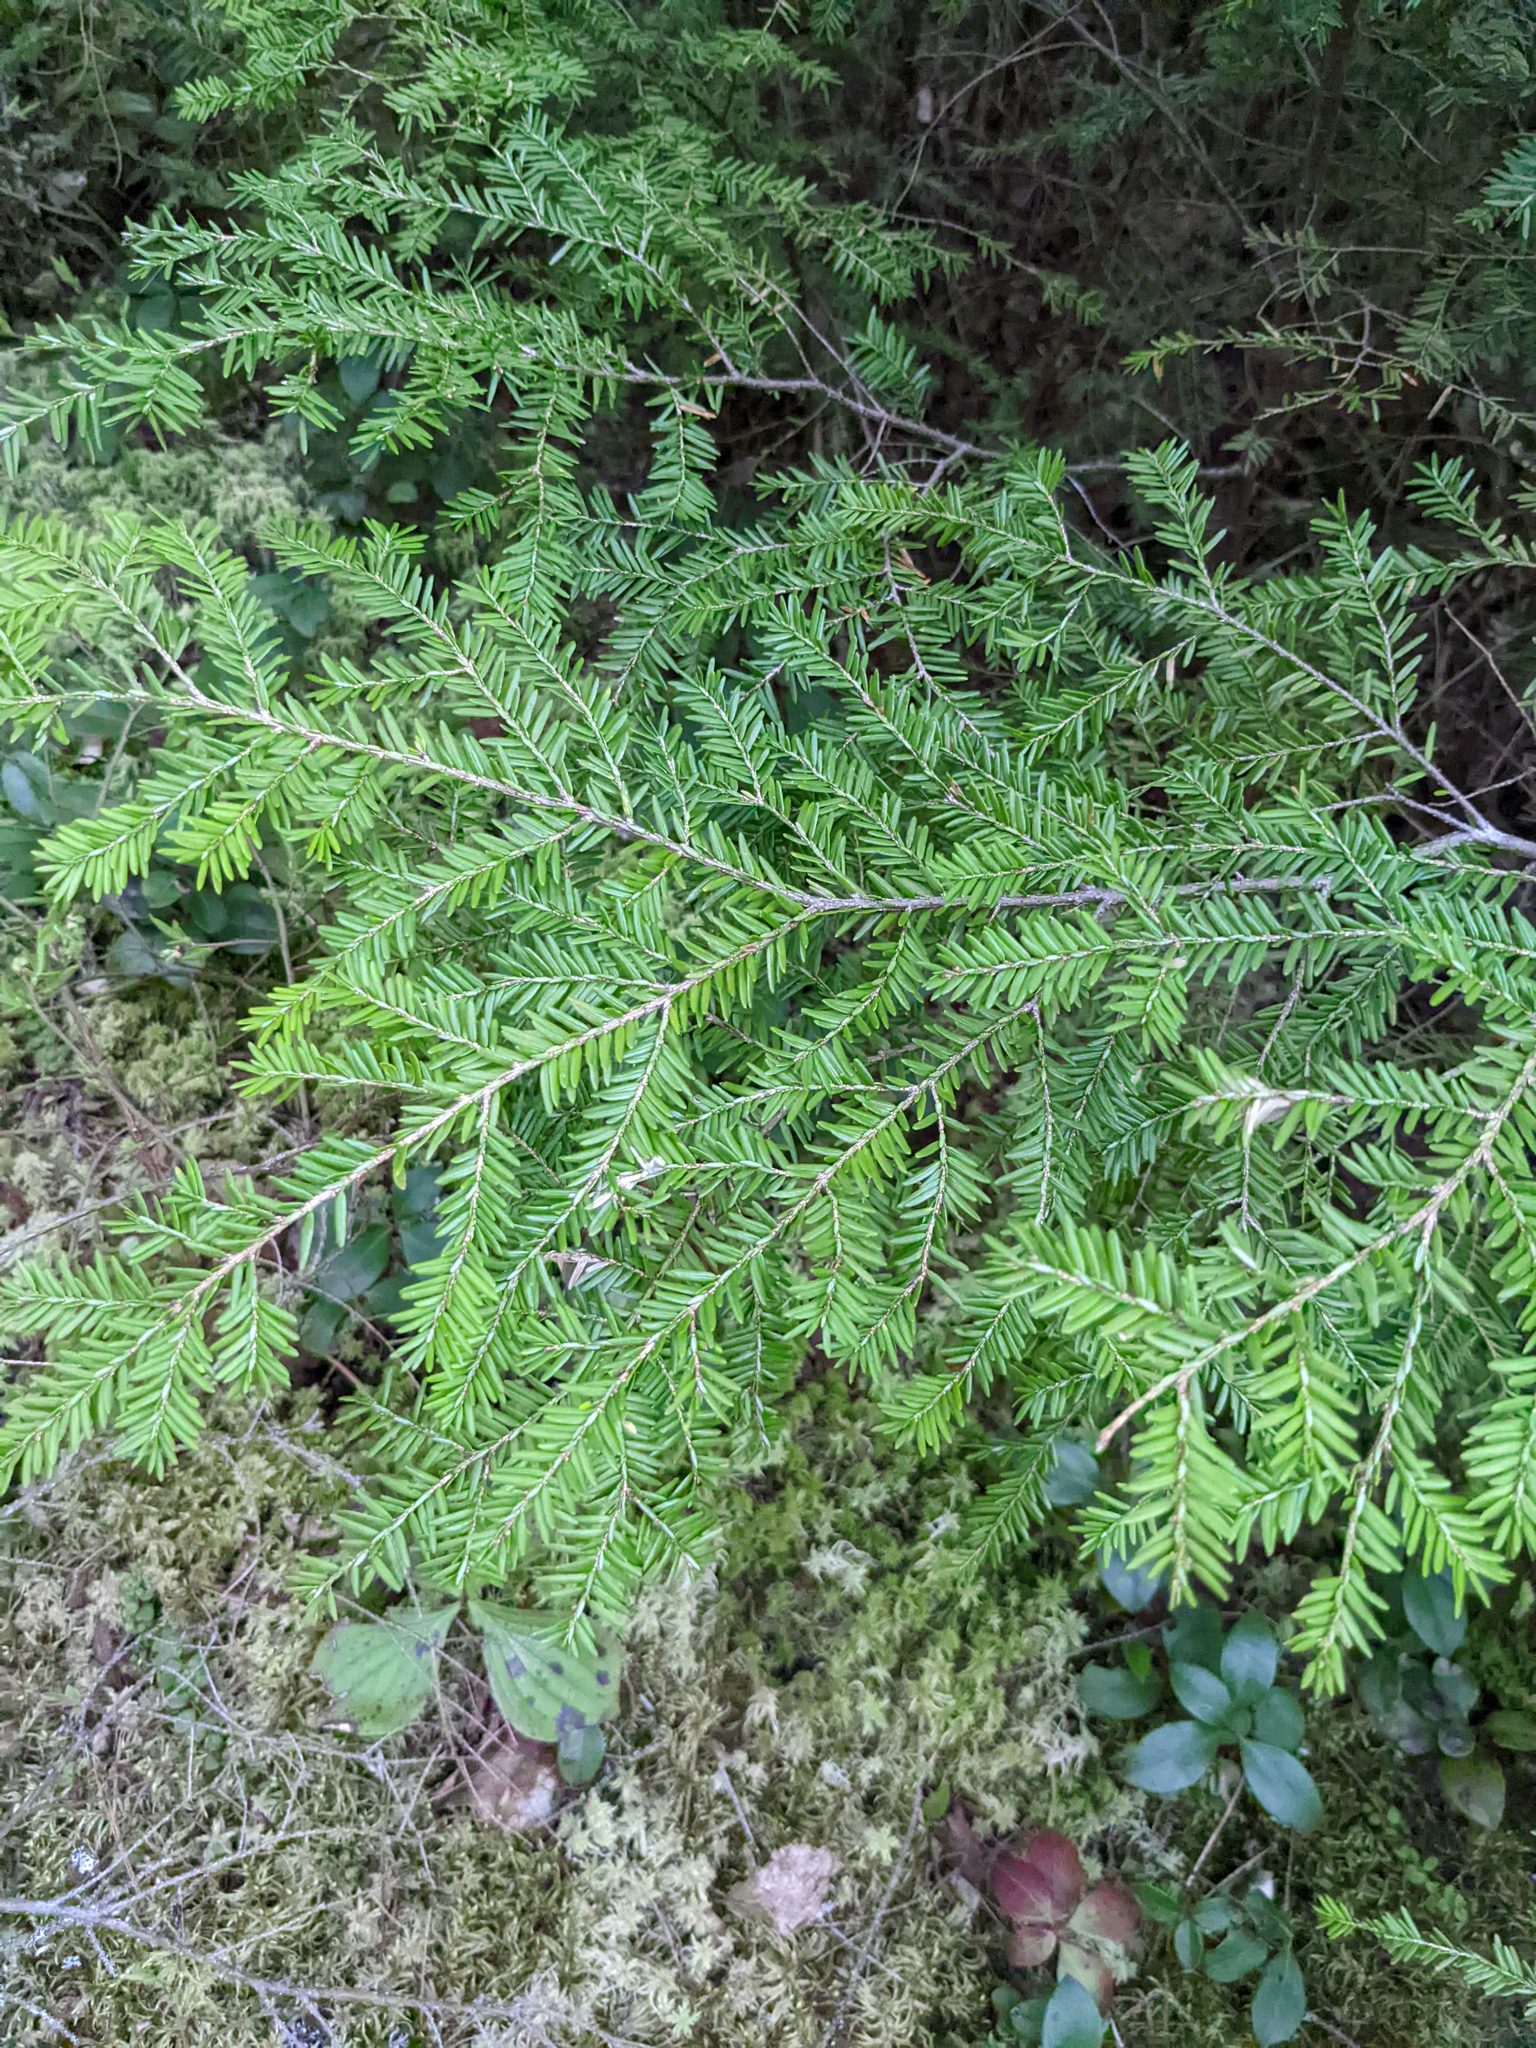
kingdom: Plantae
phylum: Tracheophyta
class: Pinopsida
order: Pinales
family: Pinaceae
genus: Tsuga
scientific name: Tsuga canadensis
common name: Eastern hemlock
